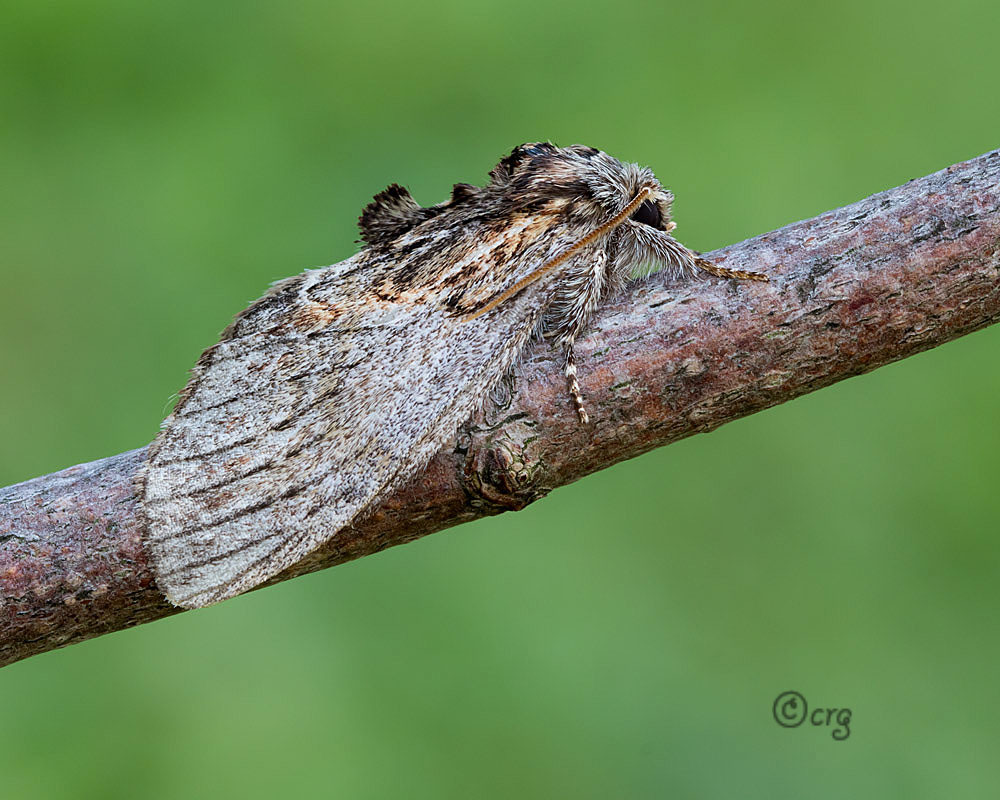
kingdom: Animalia
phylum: Arthropoda
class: Insecta
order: Lepidoptera
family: Notodontidae
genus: Peridea
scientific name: Peridea basitriens
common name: Oval-based prominent
